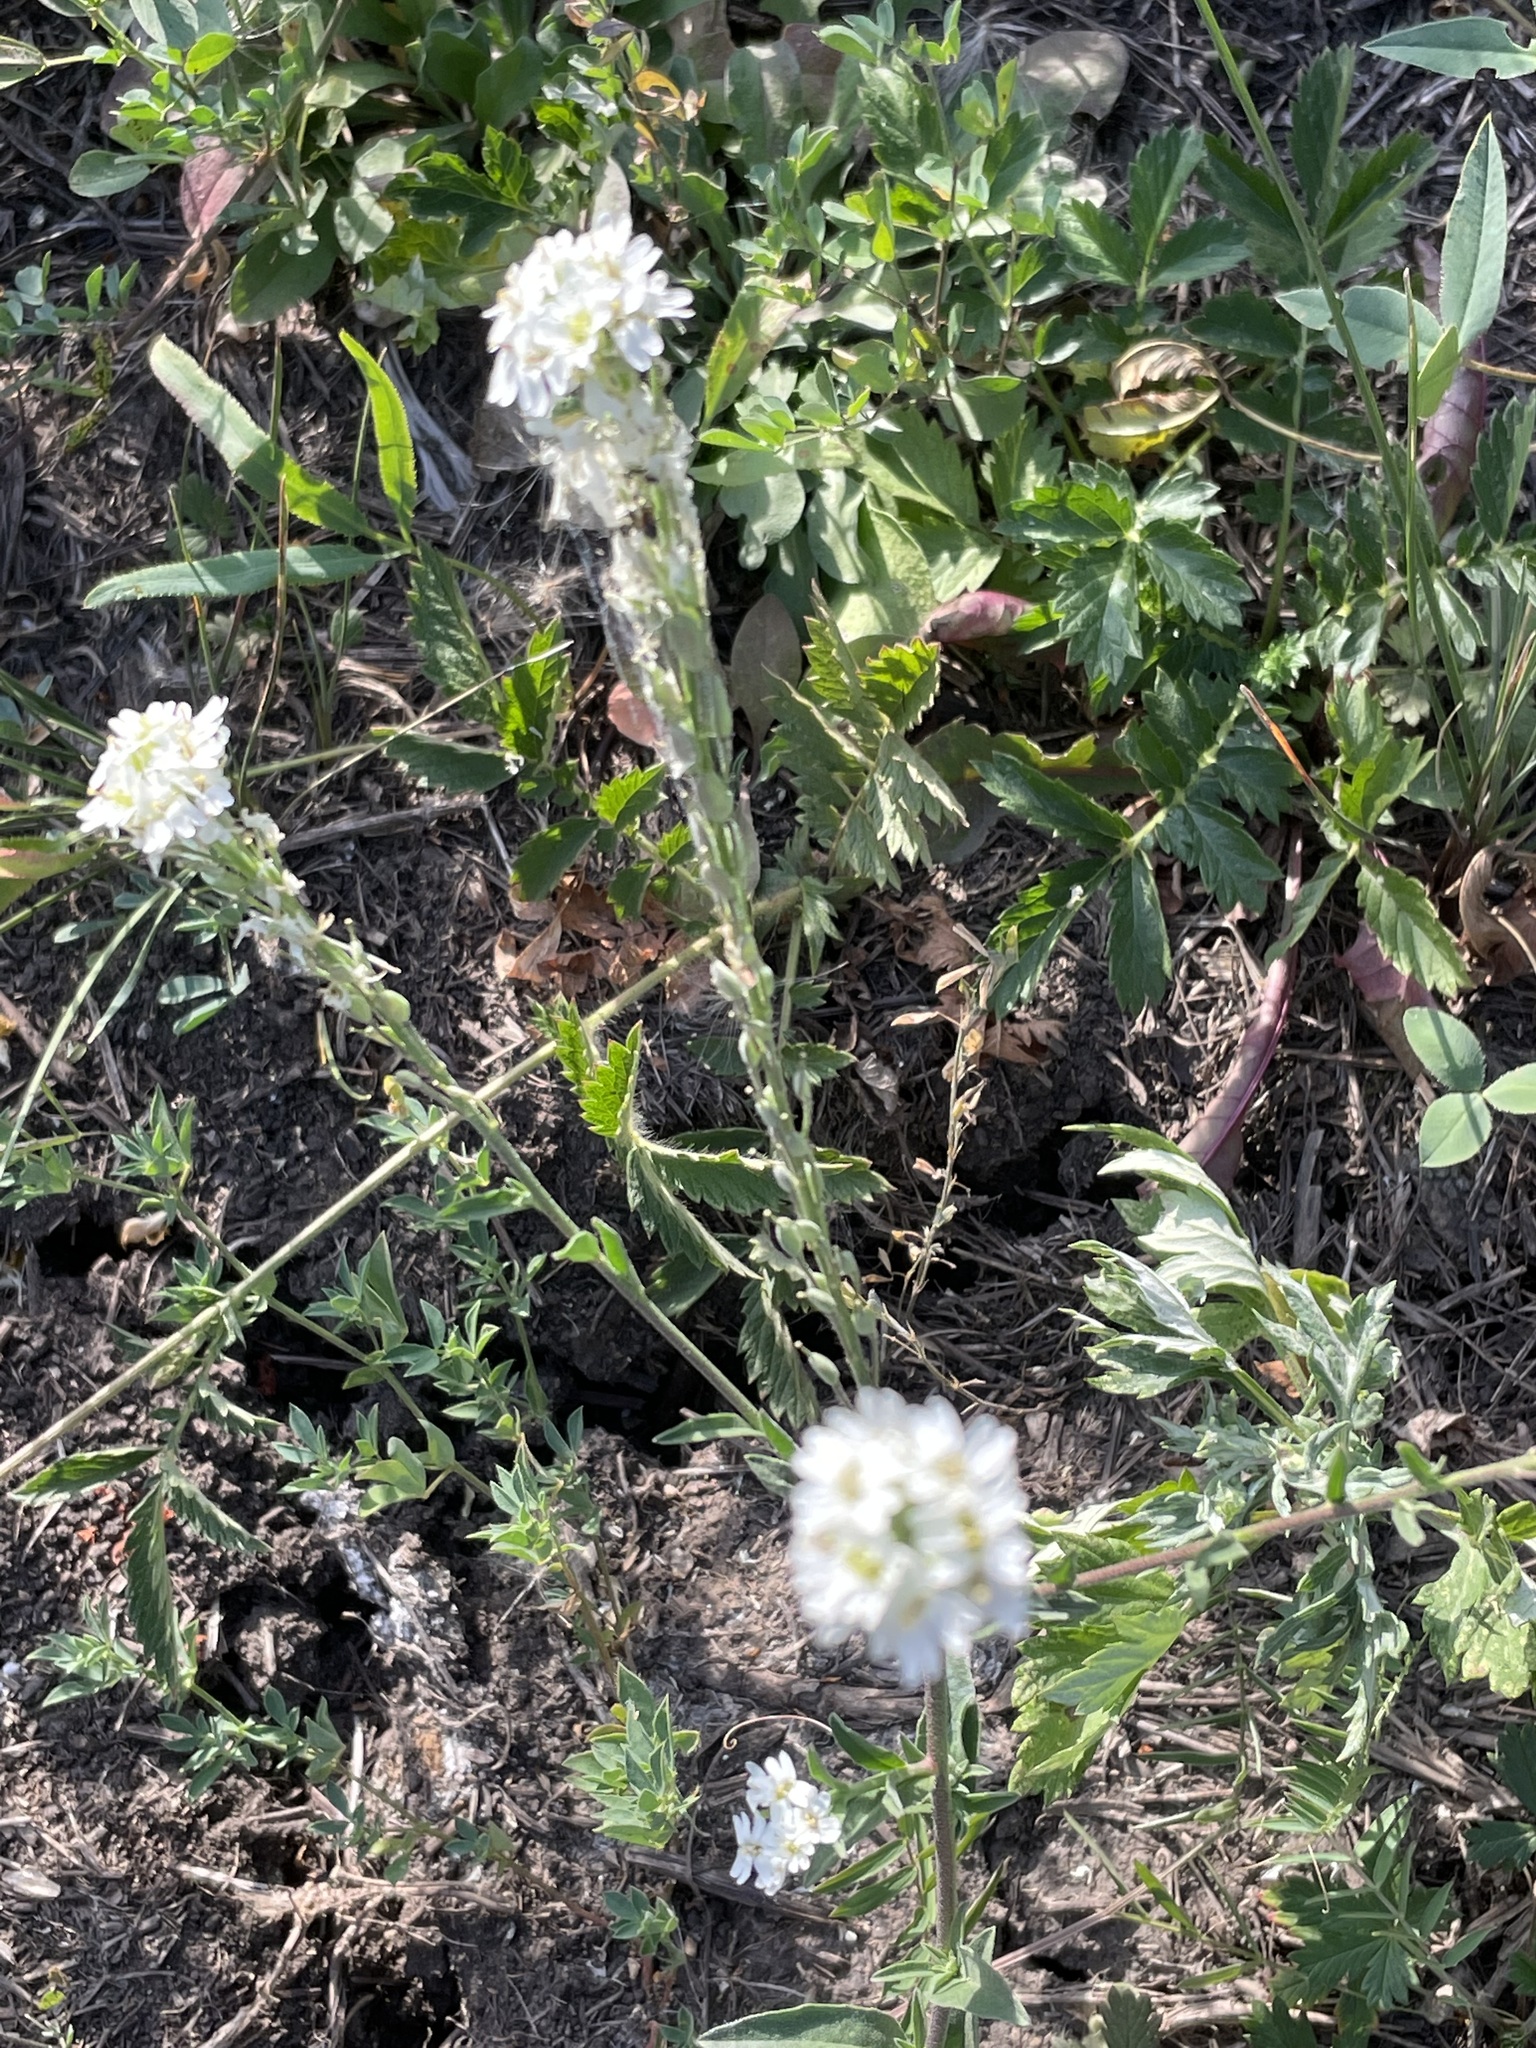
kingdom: Plantae
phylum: Tracheophyta
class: Magnoliopsida
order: Brassicales
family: Brassicaceae
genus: Berteroa
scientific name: Berteroa incana
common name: Hoary alison
